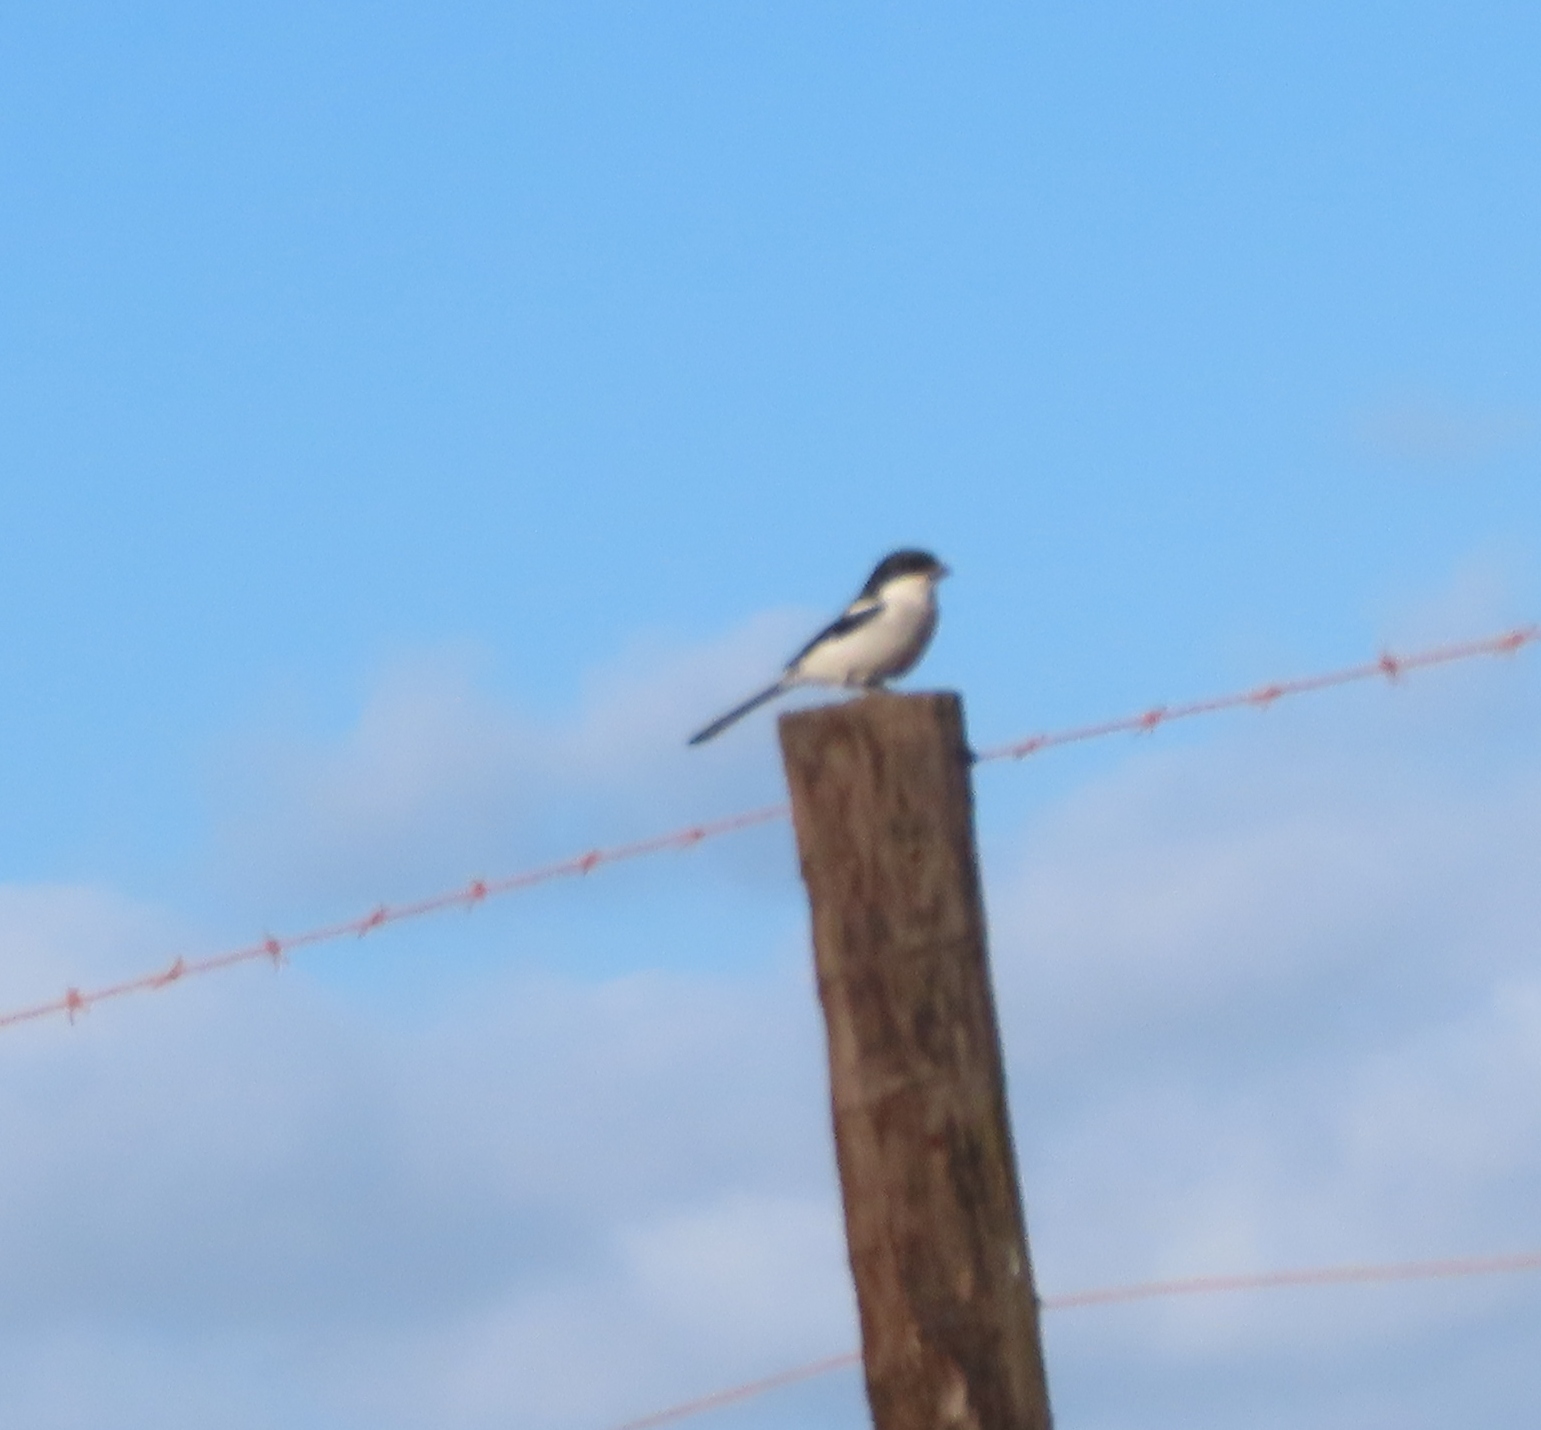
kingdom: Animalia
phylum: Chordata
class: Aves
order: Passeriformes
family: Laniidae
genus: Lanius
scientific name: Lanius collaris
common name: Southern fiscal
